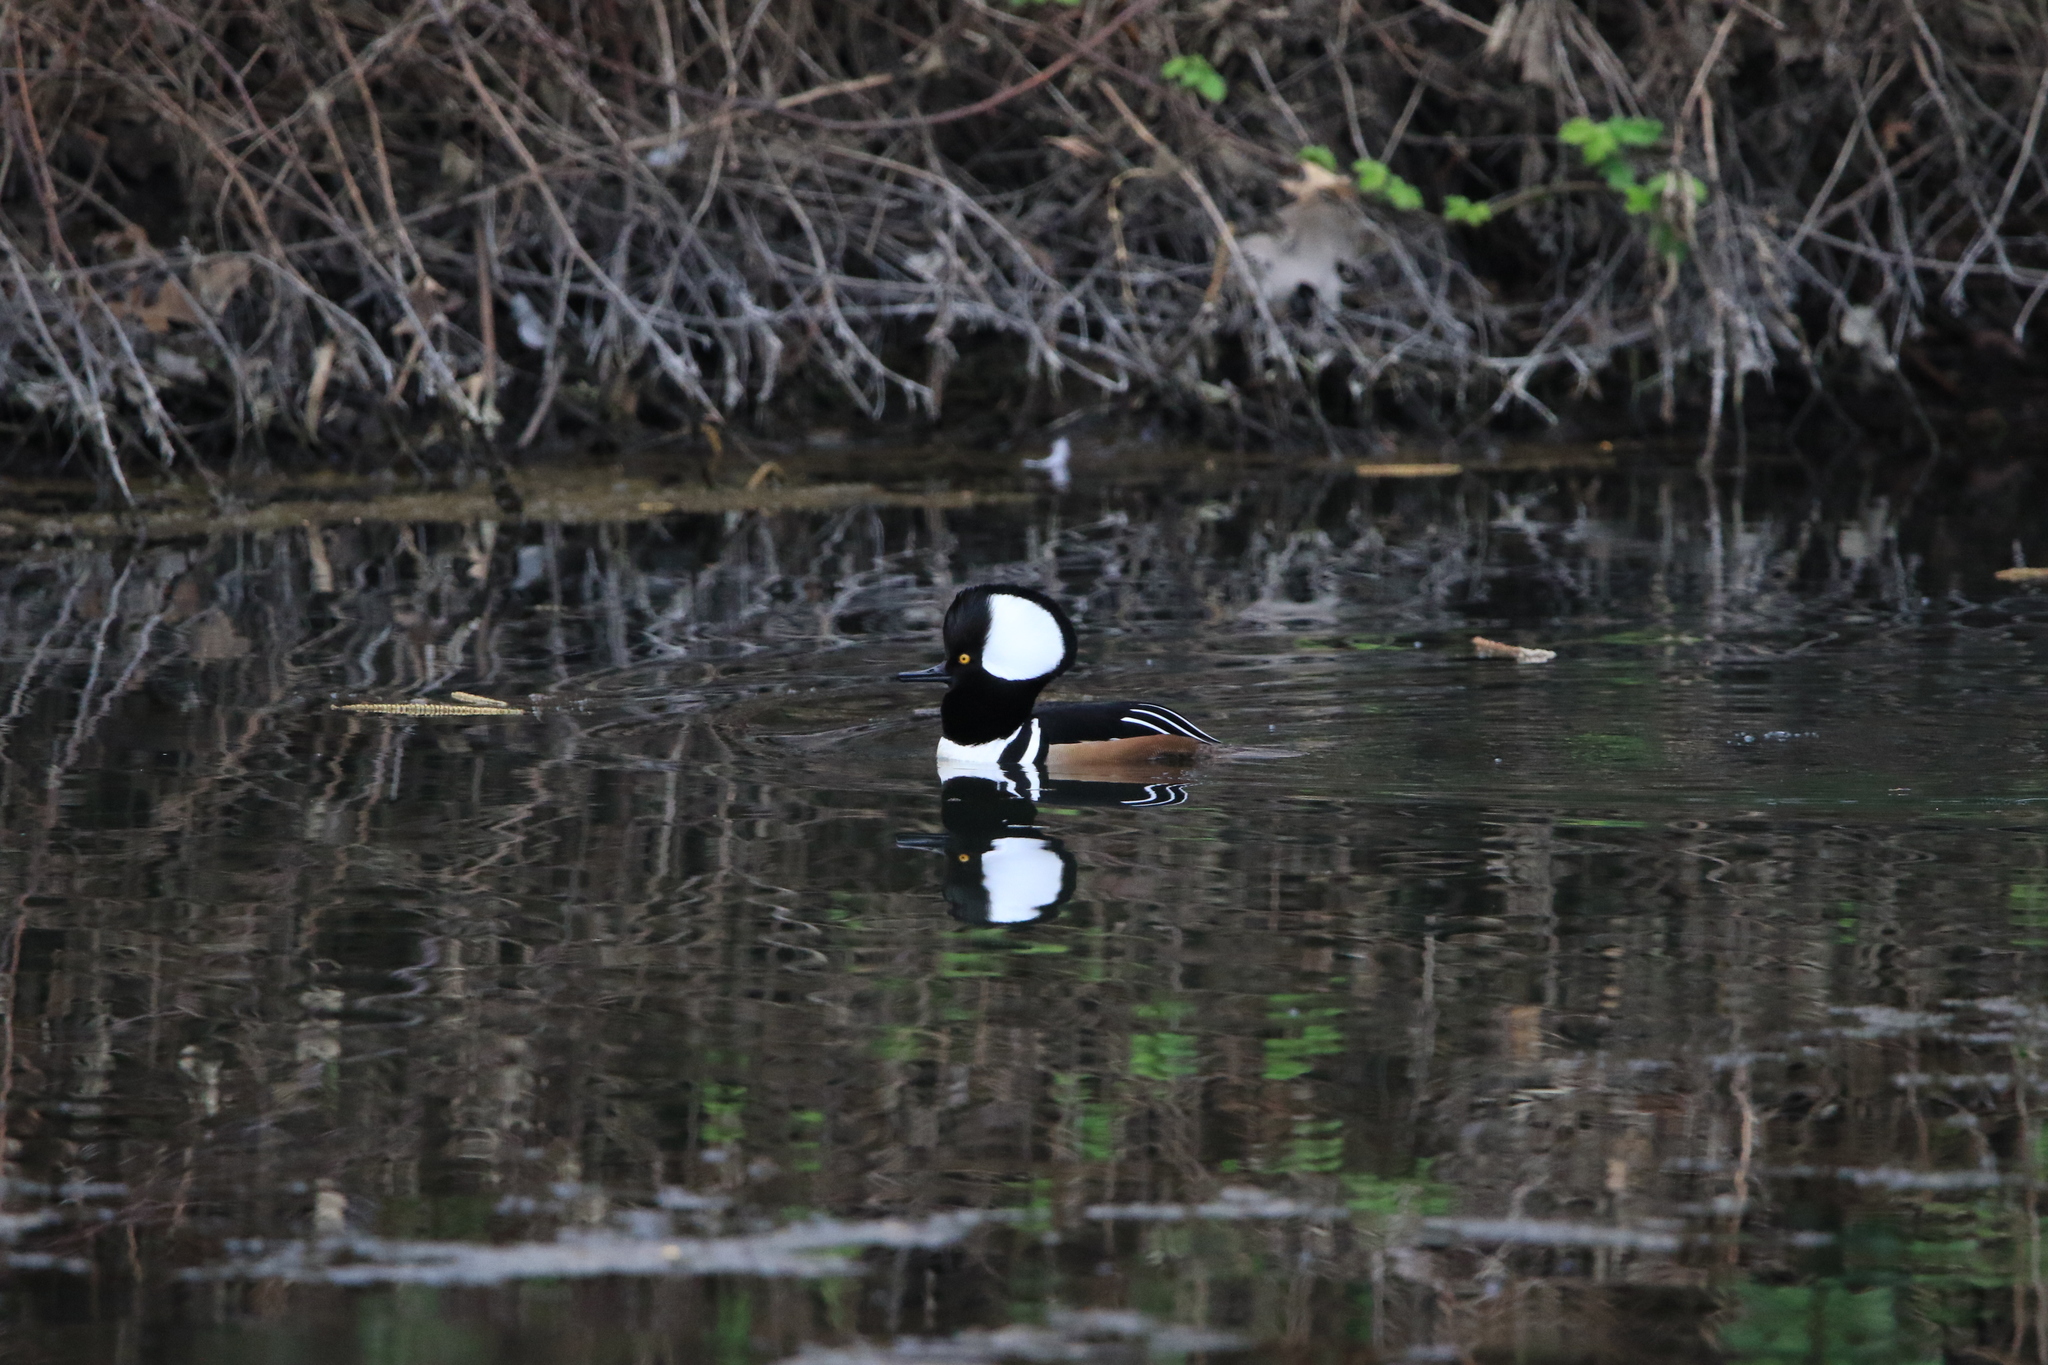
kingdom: Animalia
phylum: Chordata
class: Aves
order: Anseriformes
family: Anatidae
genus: Lophodytes
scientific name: Lophodytes cucullatus
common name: Hooded merganser
